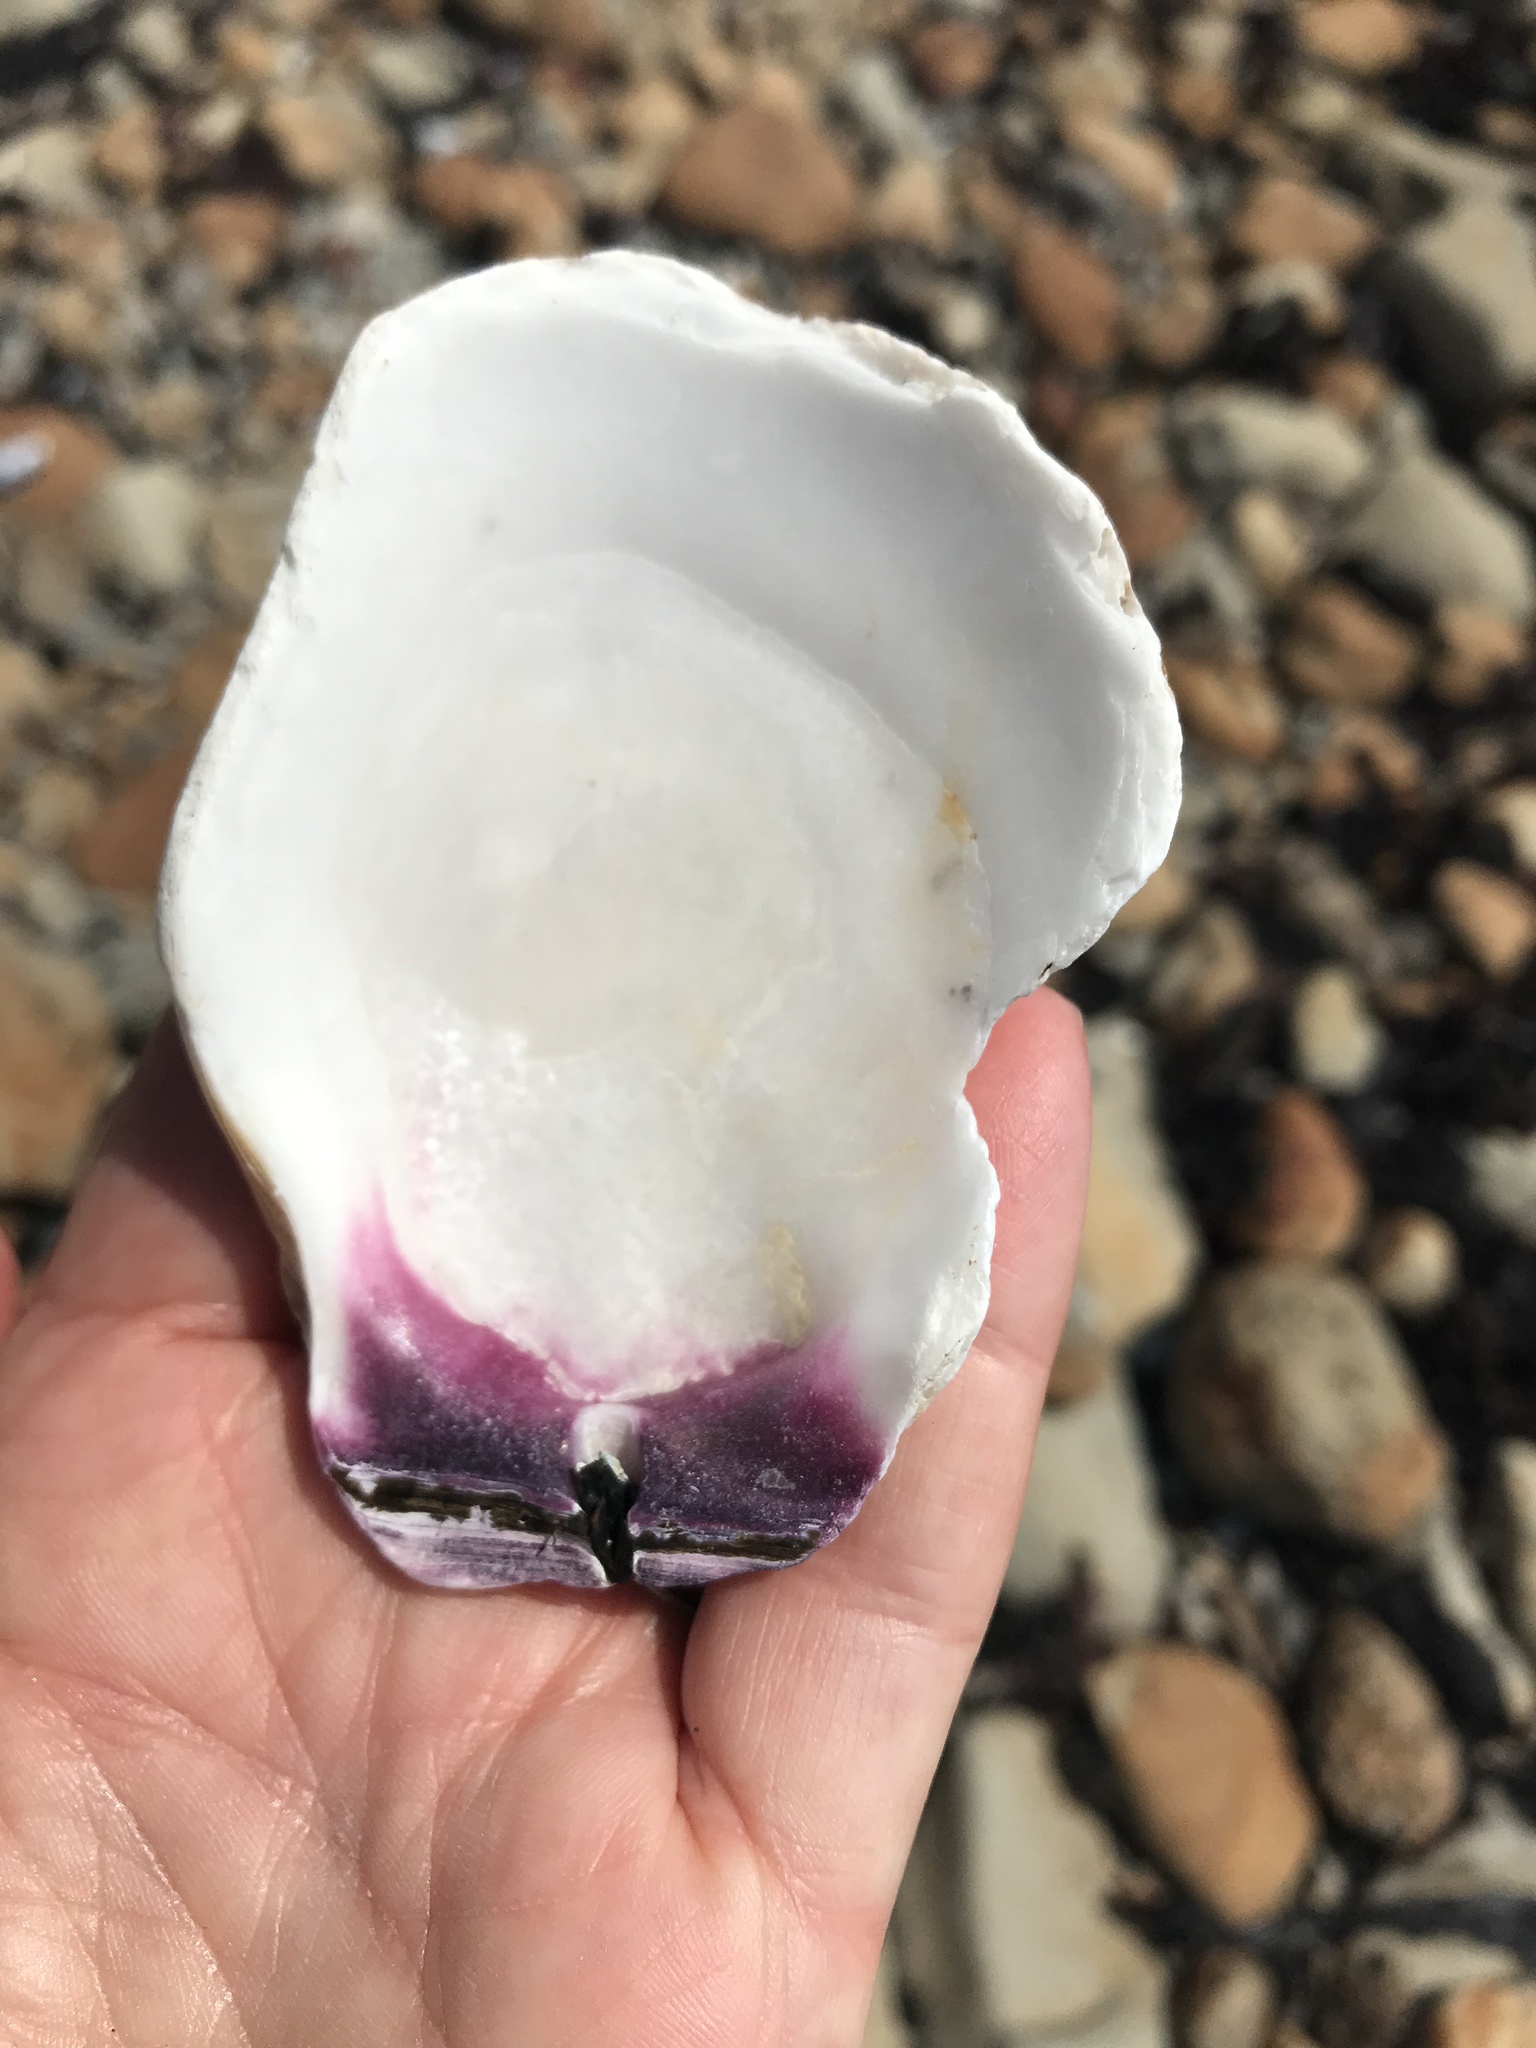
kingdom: Animalia
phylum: Mollusca
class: Bivalvia
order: Pectinida
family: Pectinidae
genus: Crassadoma
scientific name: Crassadoma gigantea
